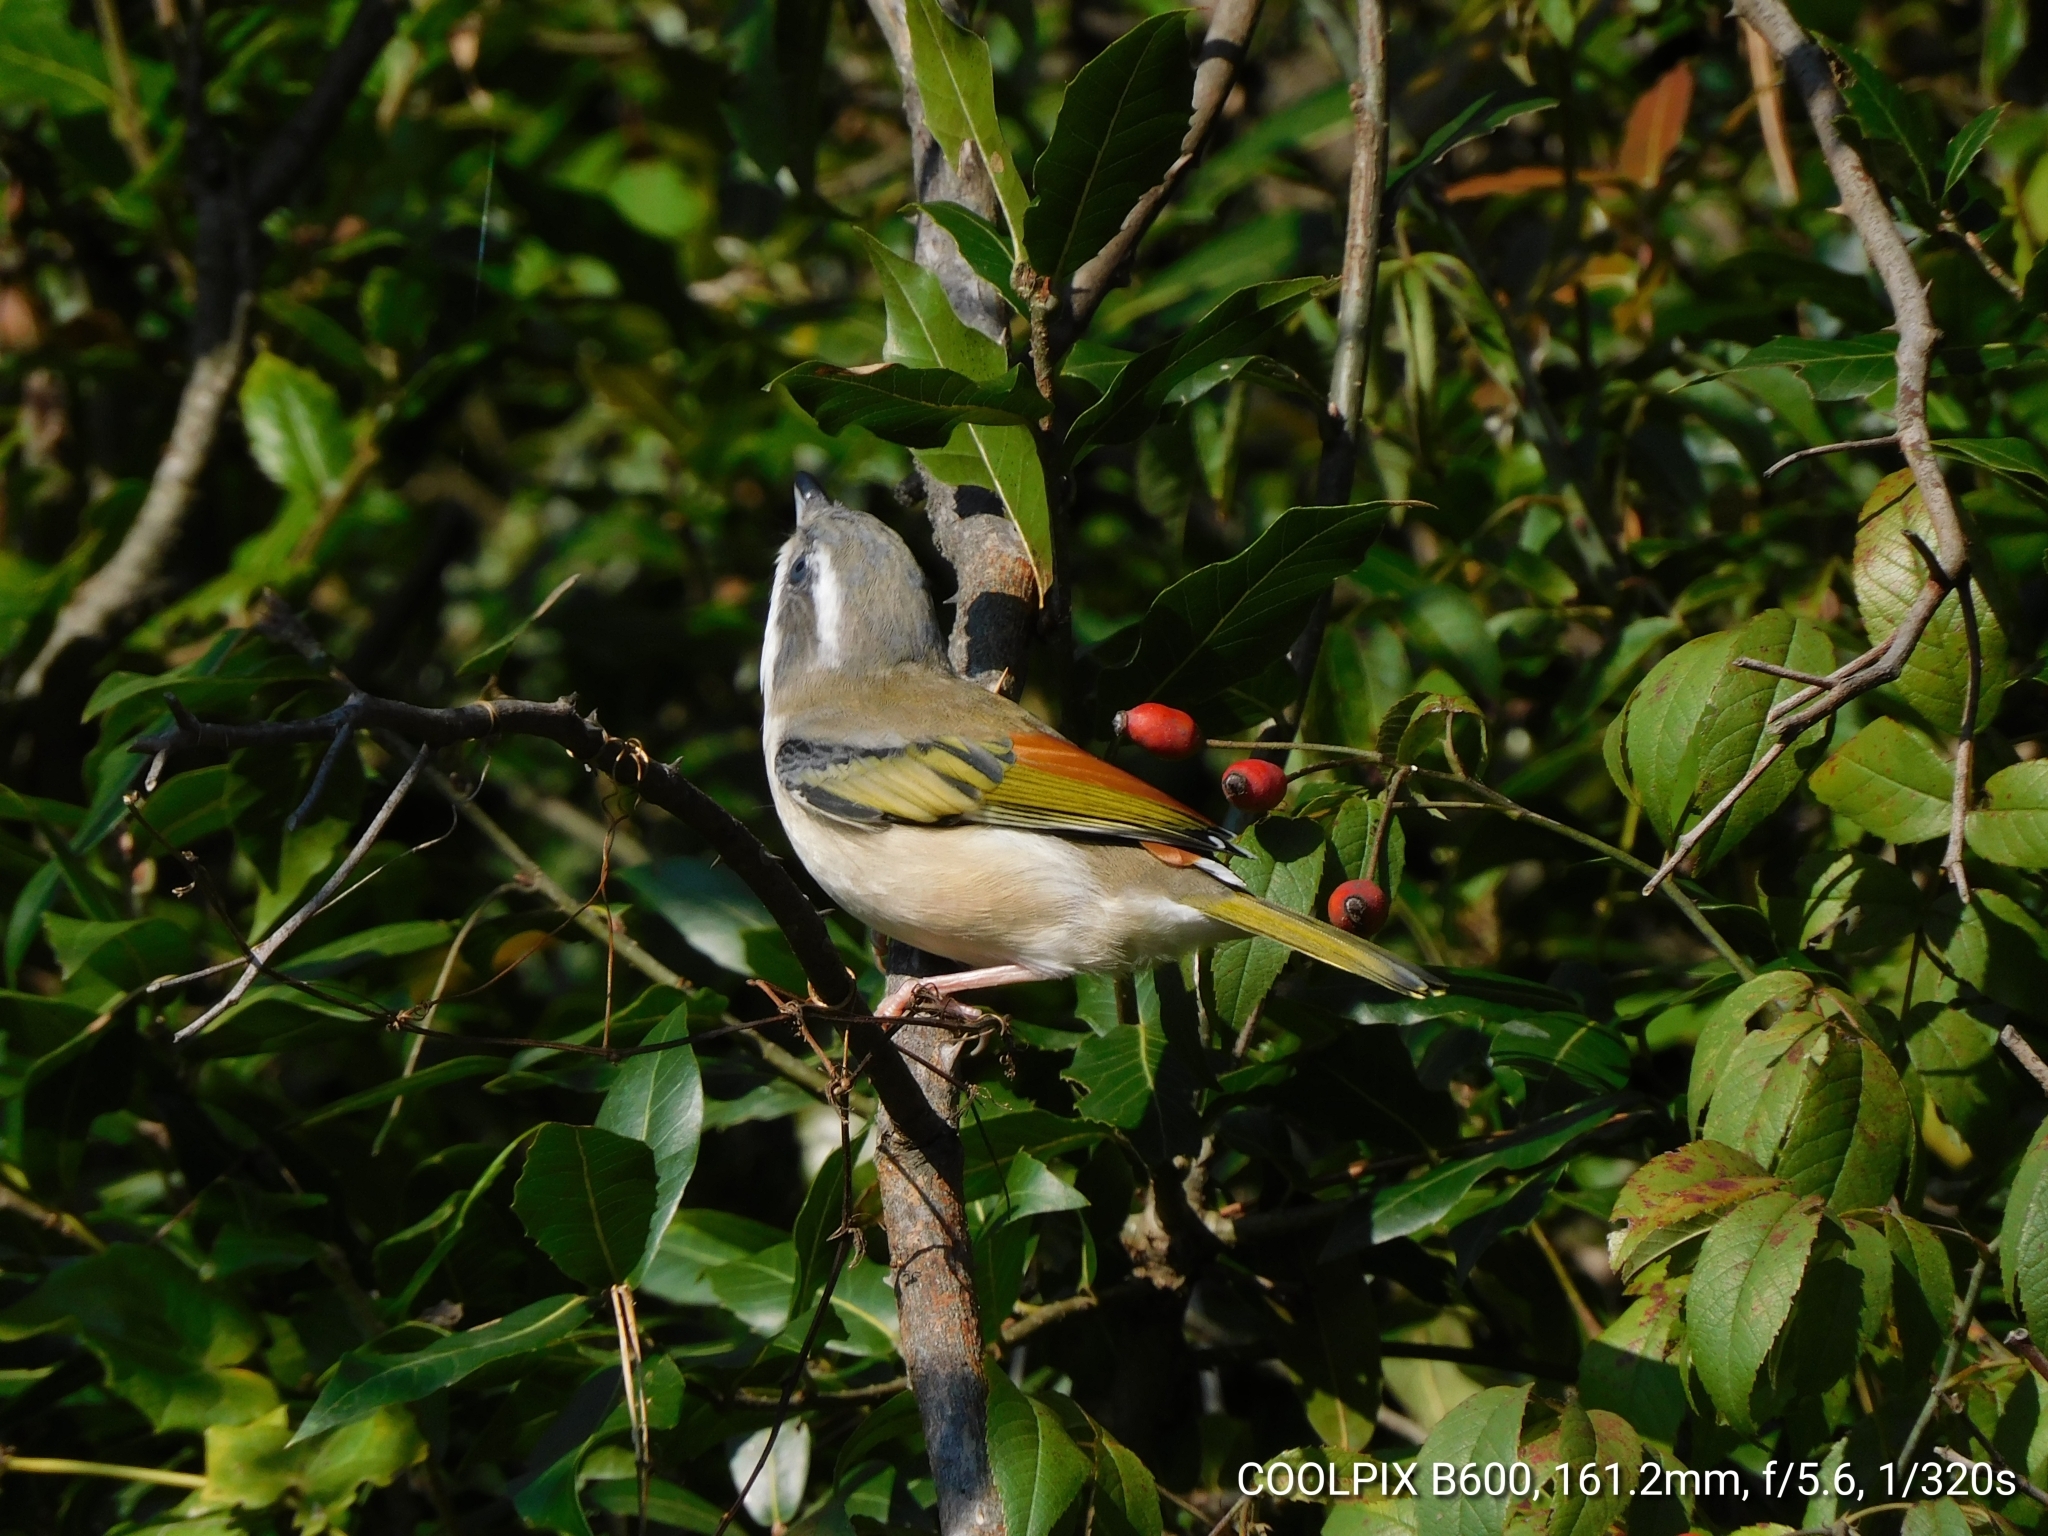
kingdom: Animalia
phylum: Chordata
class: Aves
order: Passeriformes
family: Vireonidae
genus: Pteruthius
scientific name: Pteruthius aeralatus
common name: Blyth's shrike-babbler
